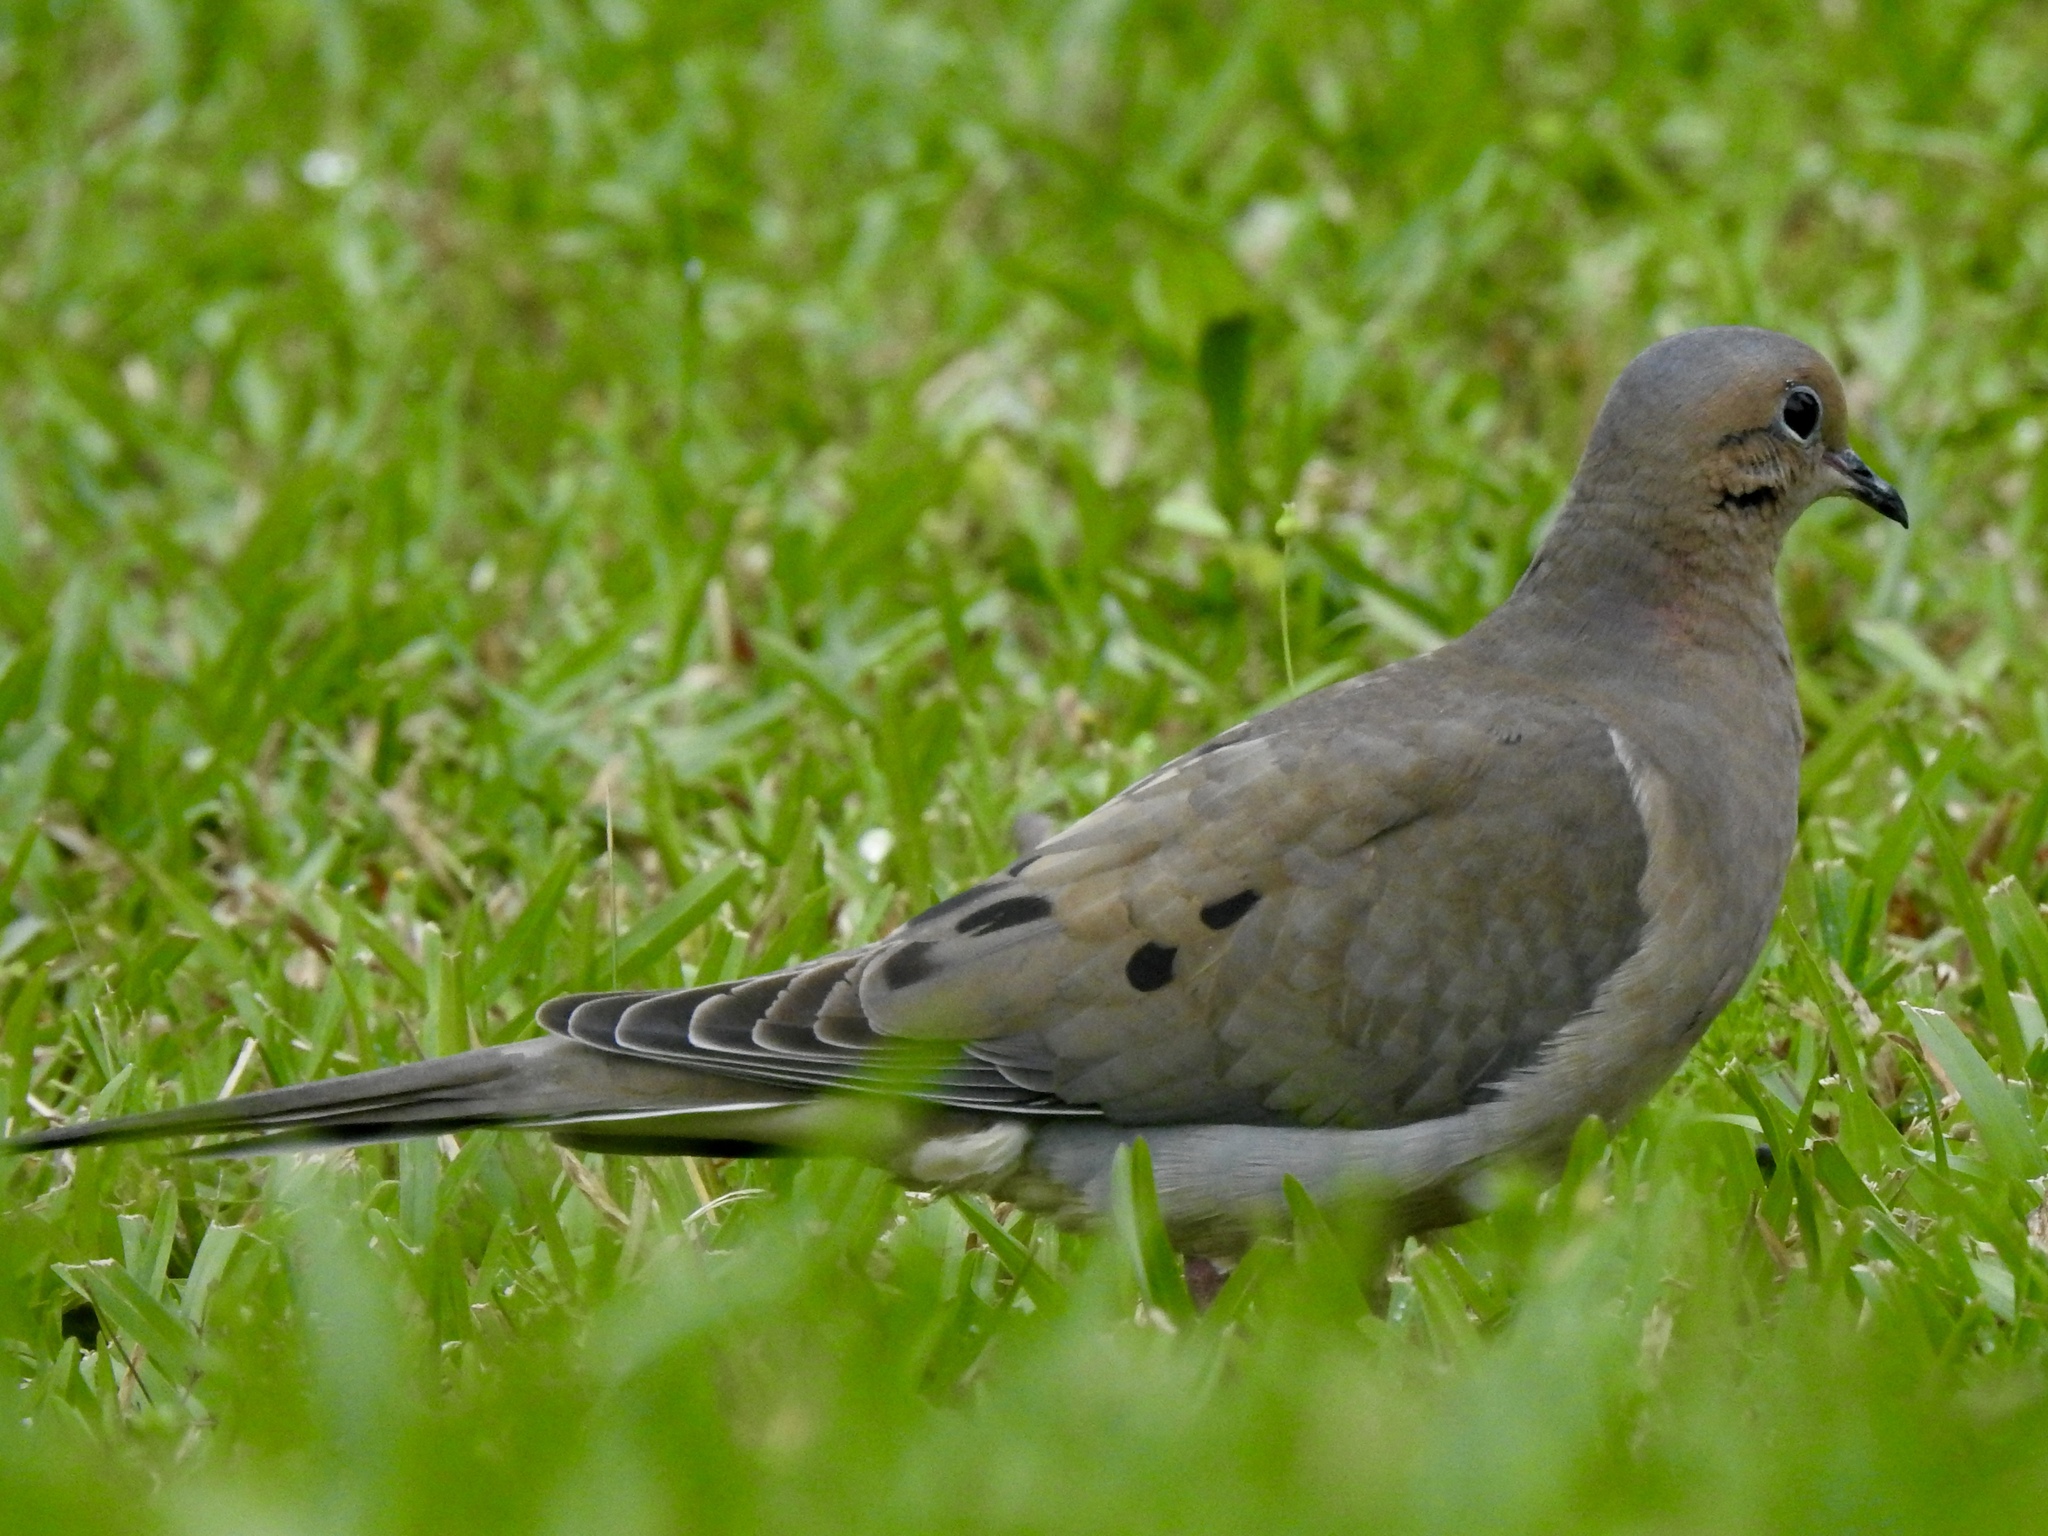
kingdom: Animalia
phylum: Chordata
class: Aves
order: Columbiformes
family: Columbidae
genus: Zenaida
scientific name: Zenaida macroura
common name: Mourning dove
